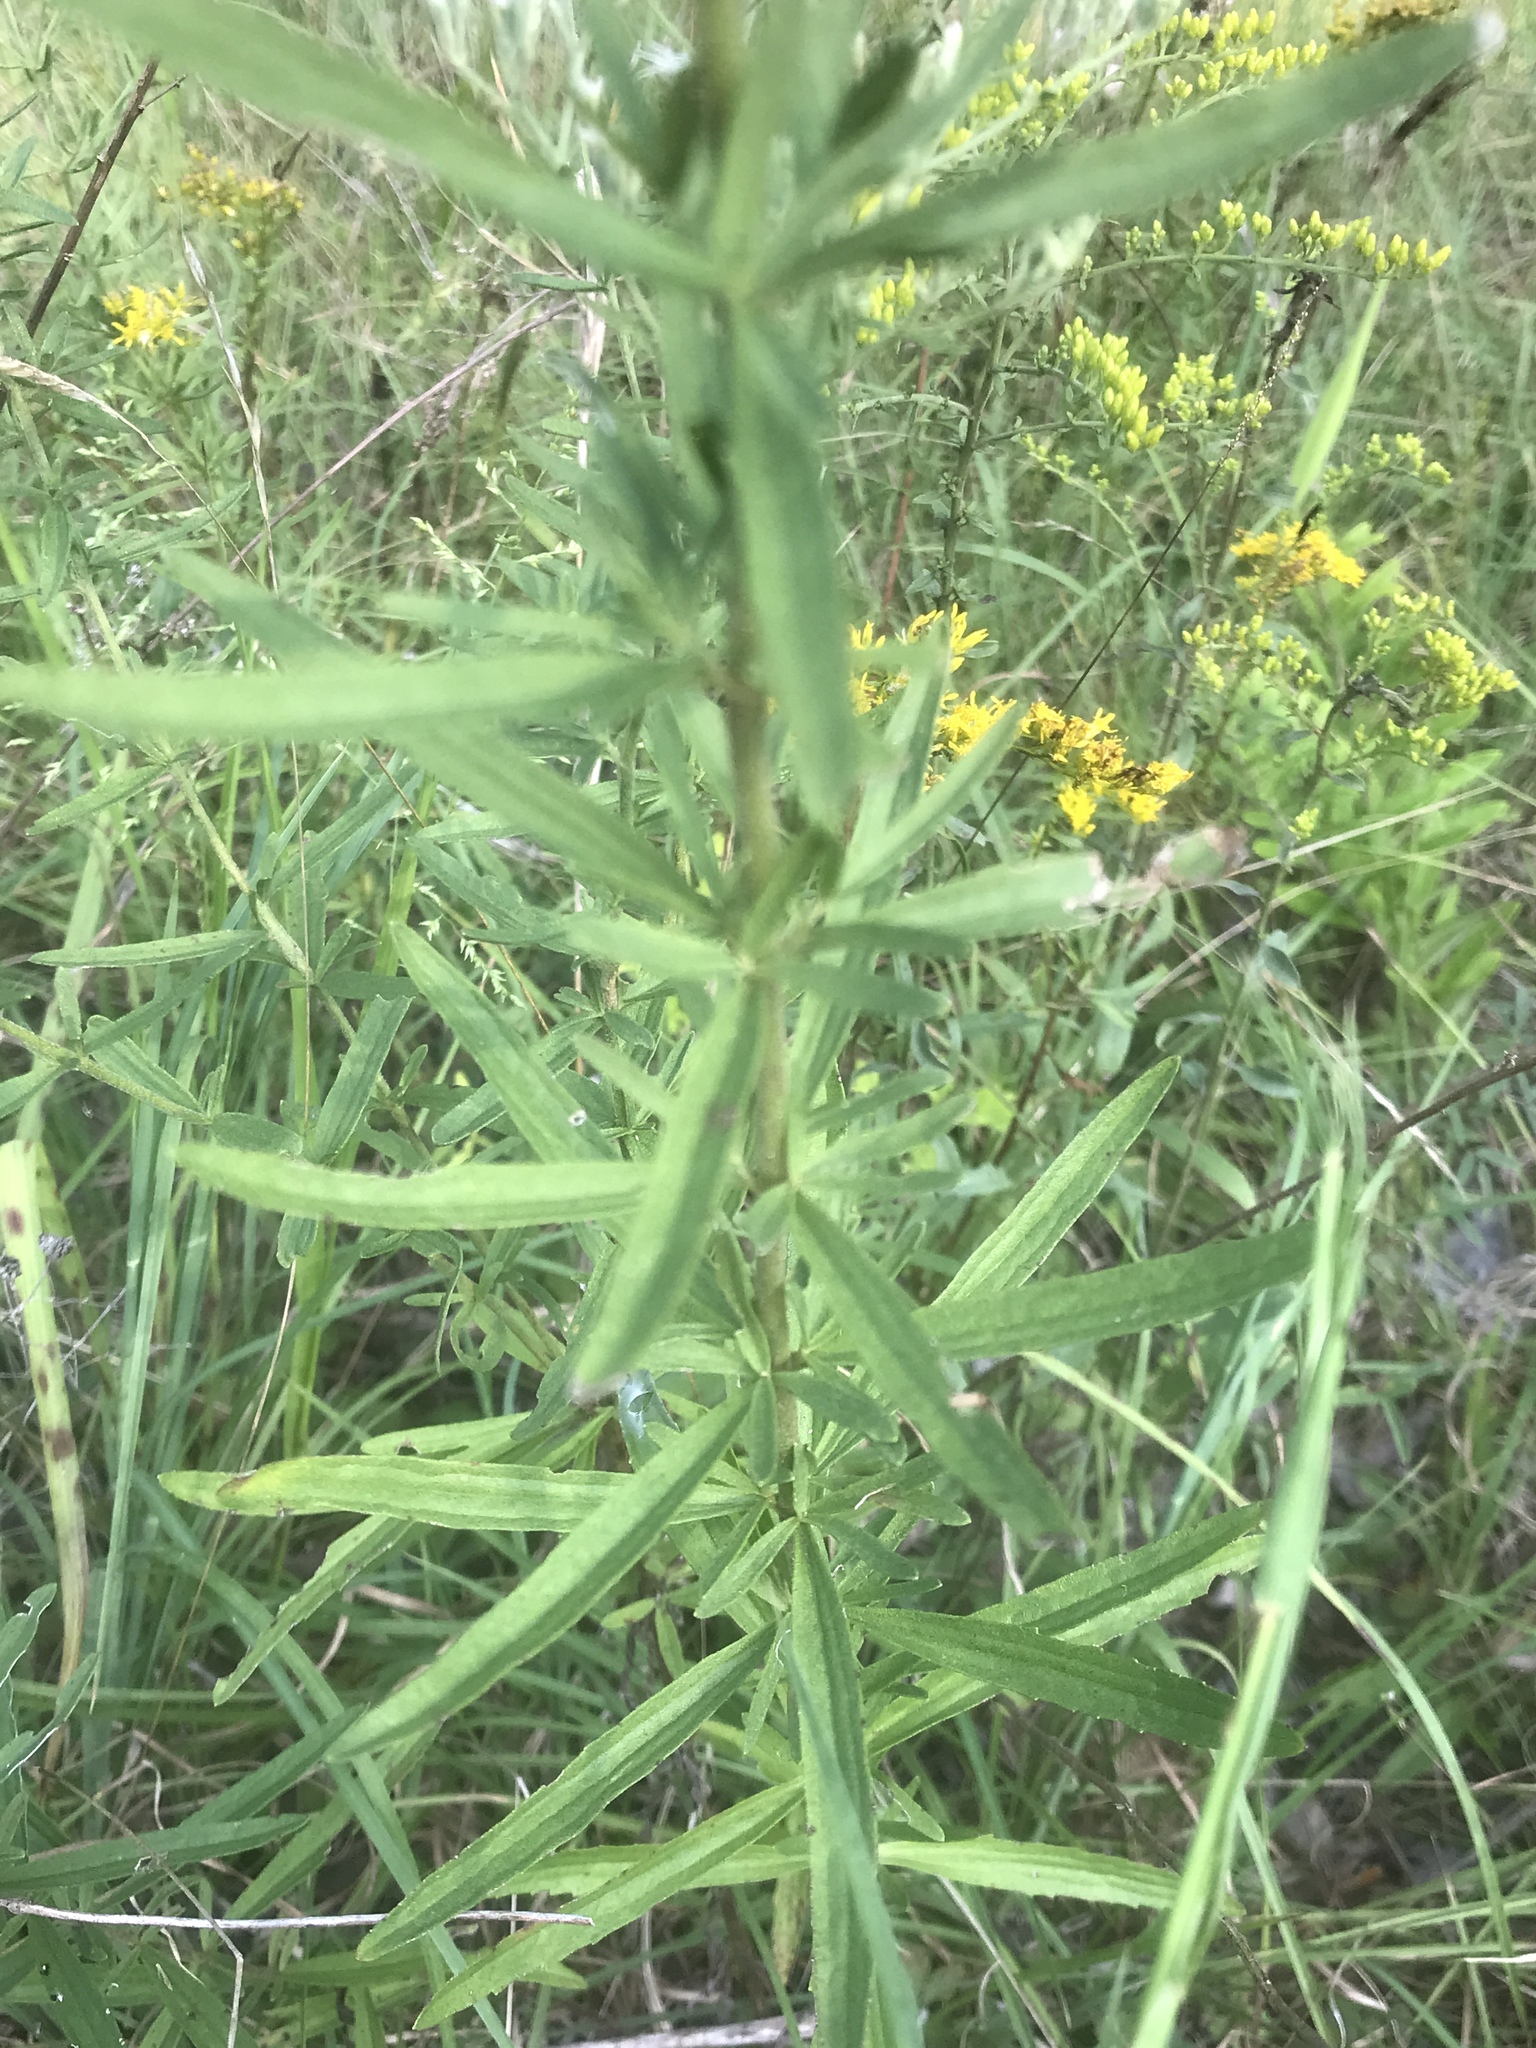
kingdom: Plantae
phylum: Tracheophyta
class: Magnoliopsida
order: Asterales
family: Asteraceae
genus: Eupatorium
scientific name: Eupatorium torreyanum
